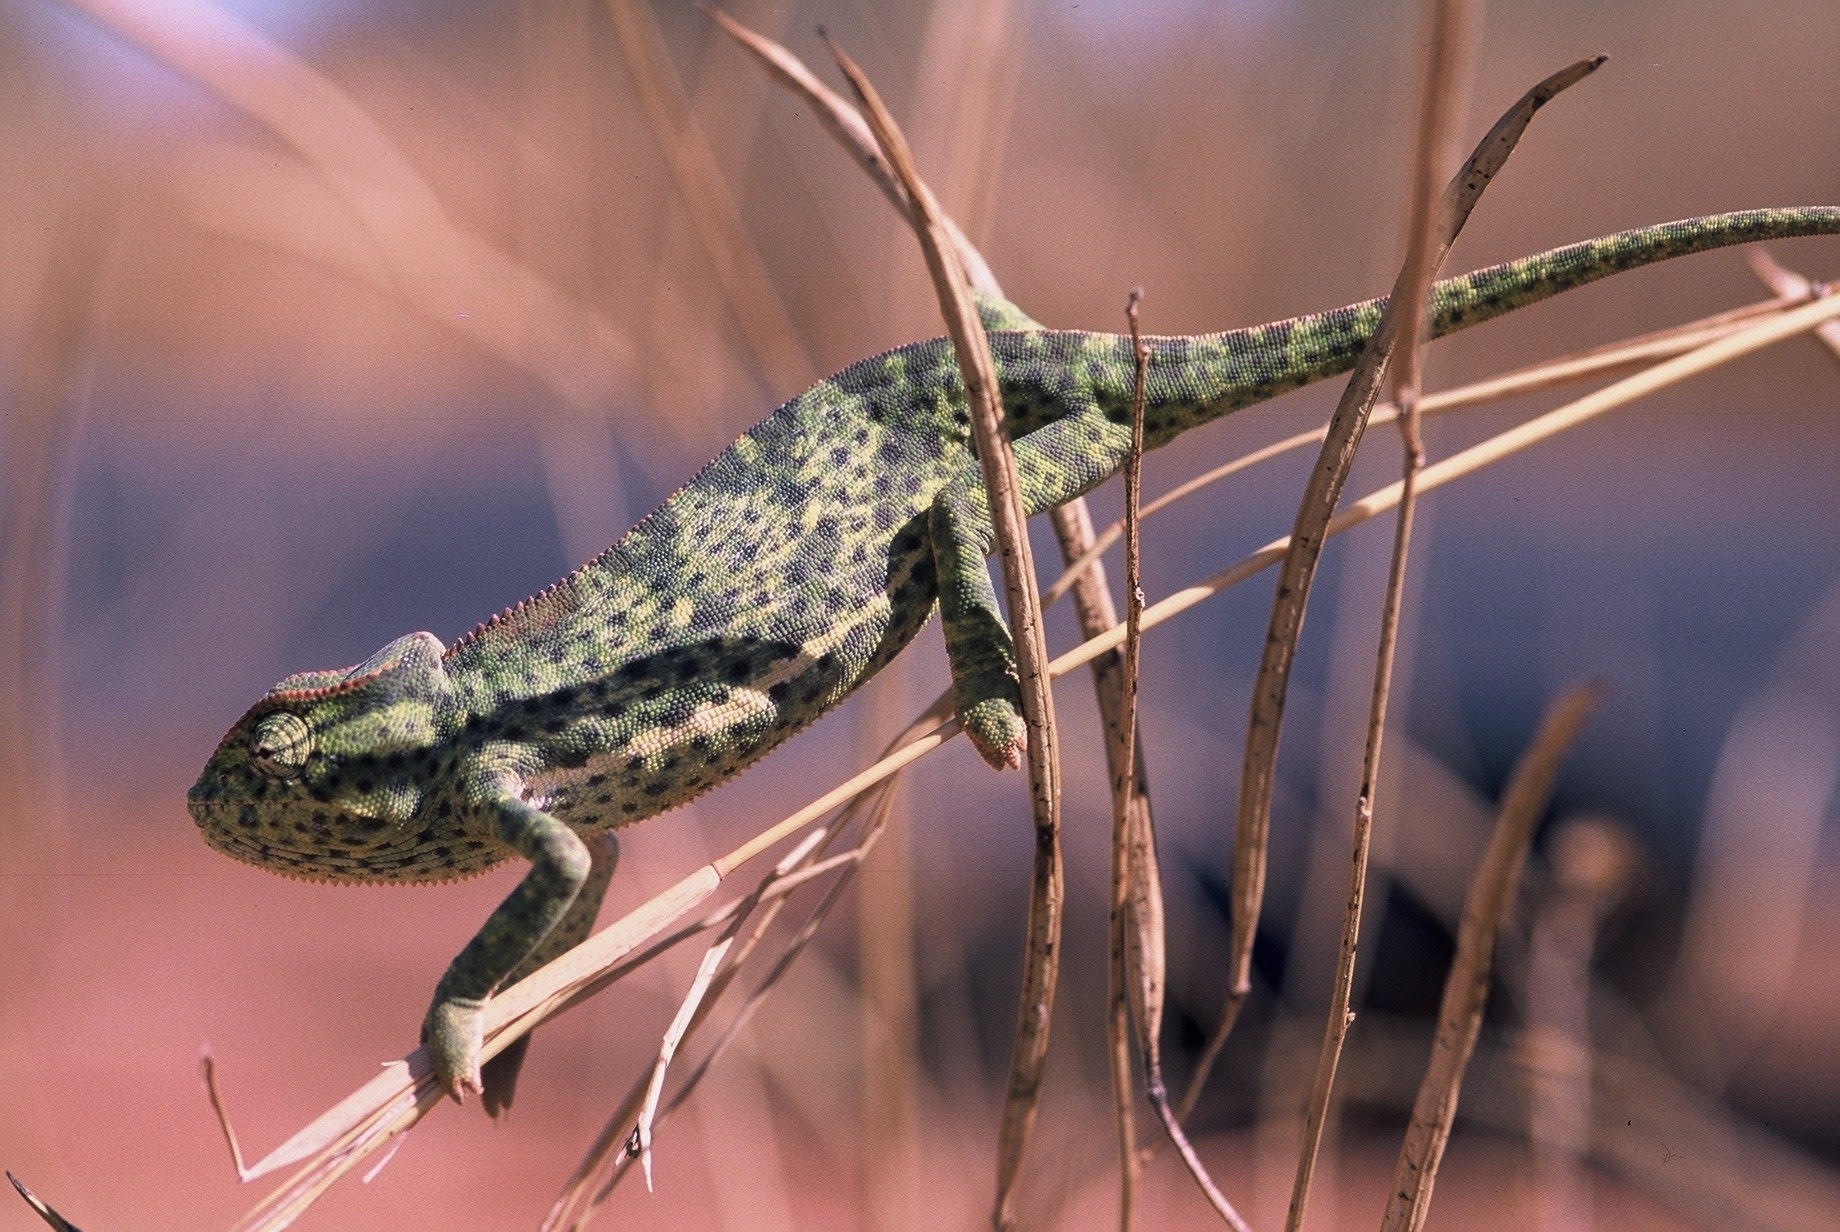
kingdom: Animalia
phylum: Chordata
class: Squamata
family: Chamaeleonidae
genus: Chamaeleo
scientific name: Chamaeleo senegalensis
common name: Senegal chameleon
